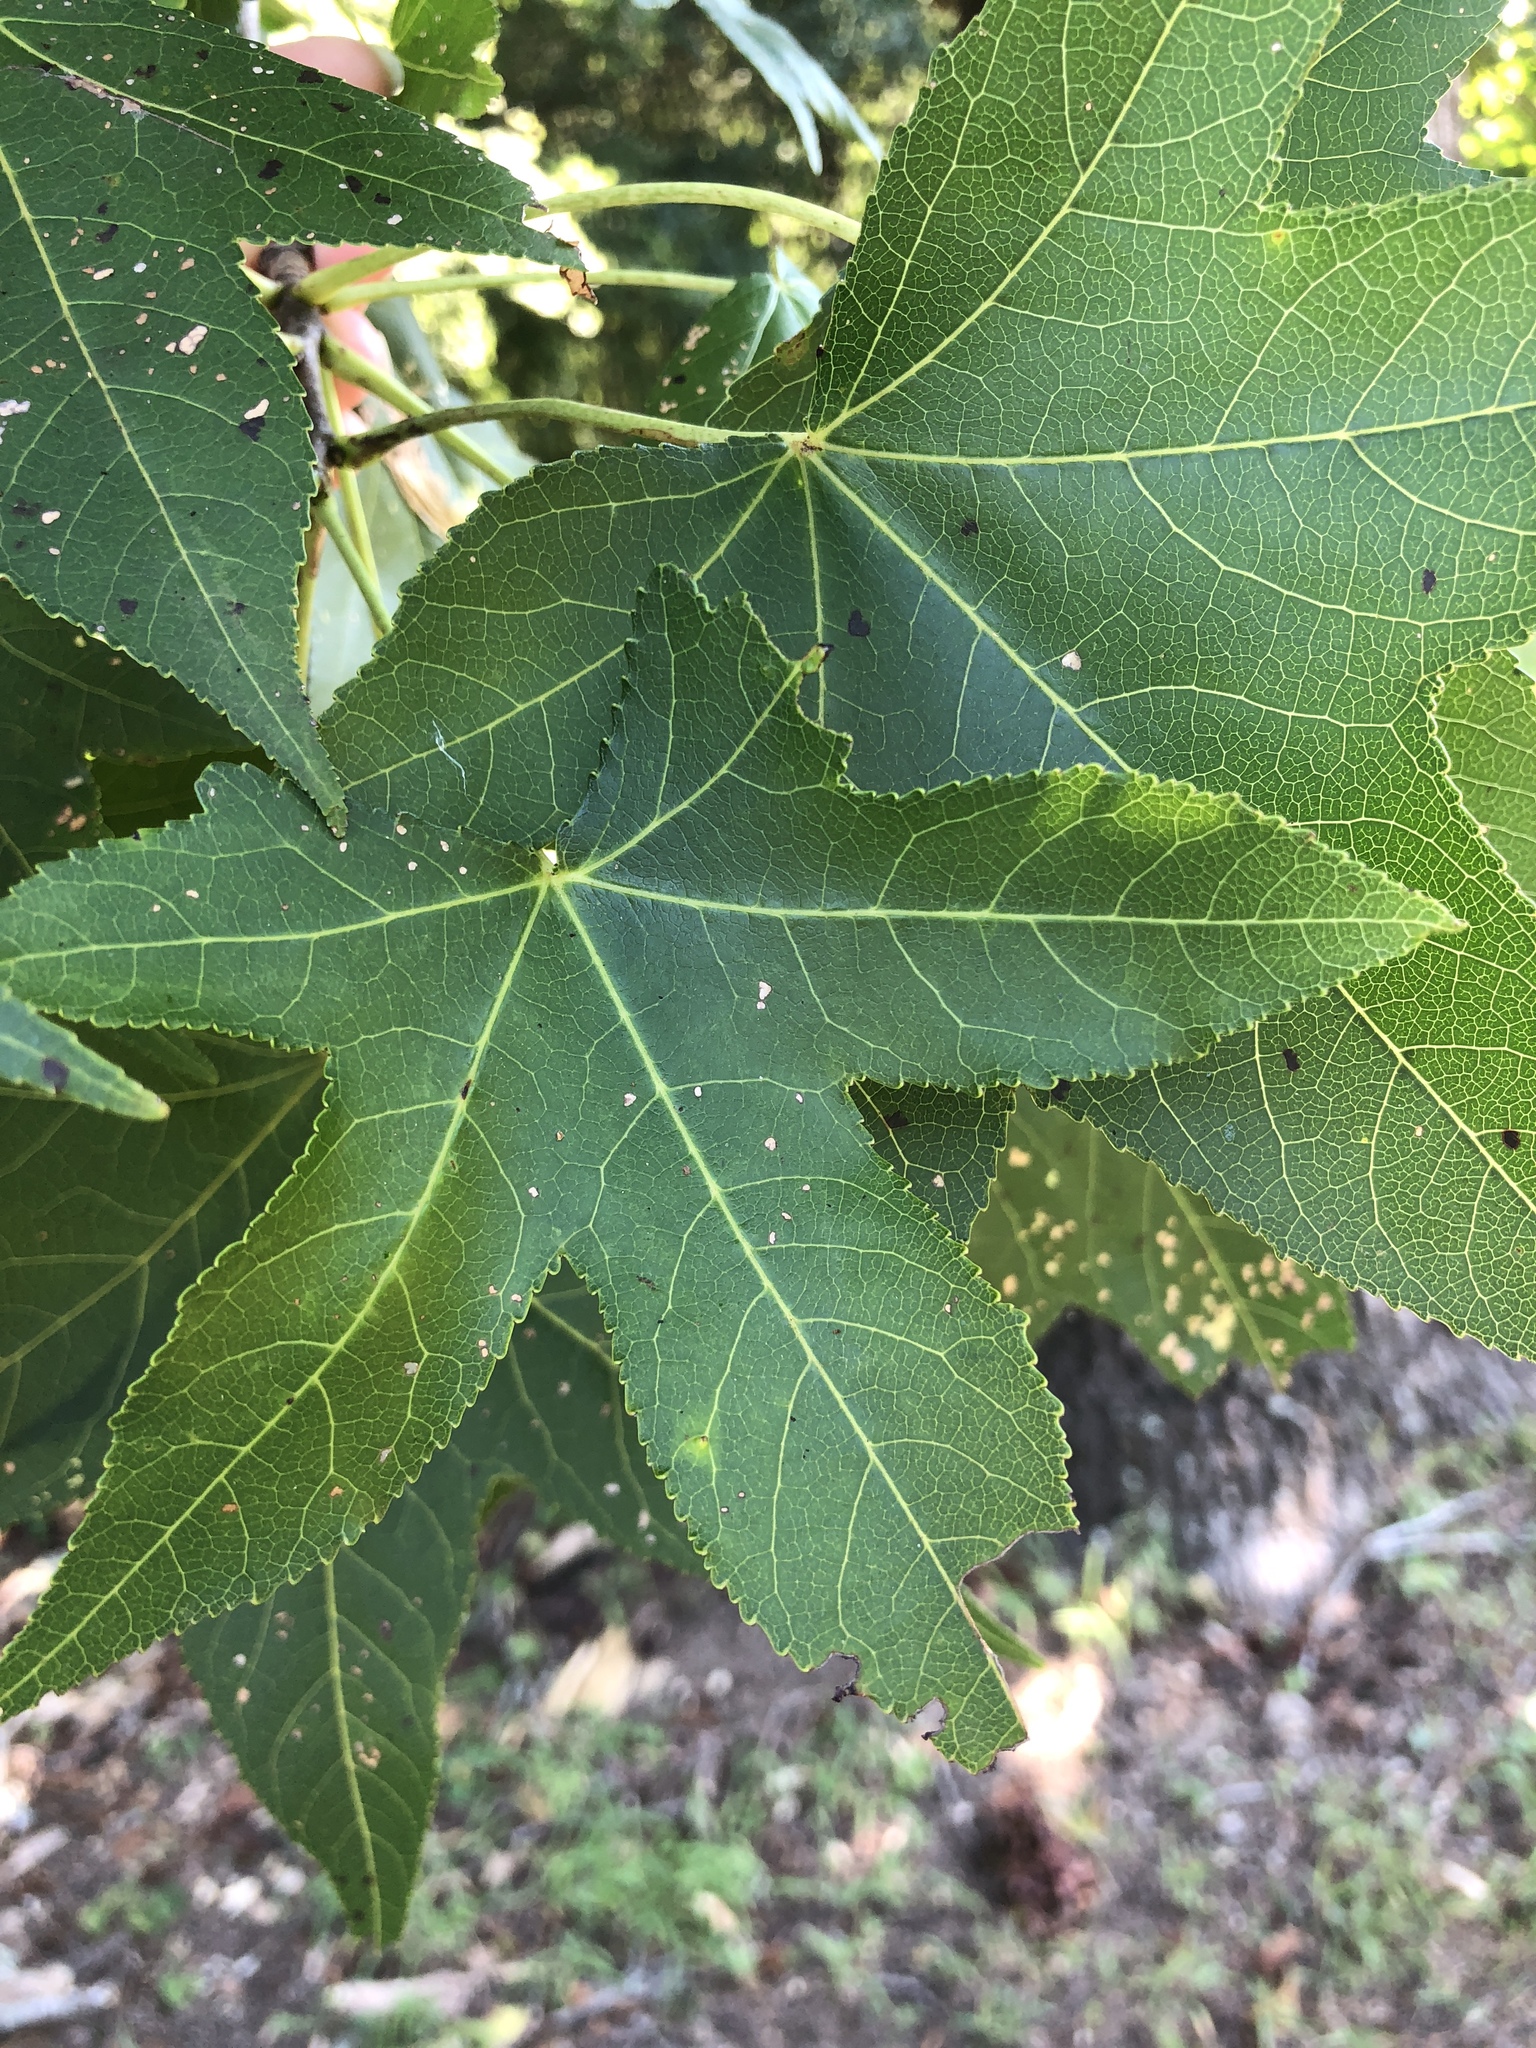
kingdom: Plantae
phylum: Tracheophyta
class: Magnoliopsida
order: Saxifragales
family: Altingiaceae
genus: Liquidambar
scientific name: Liquidambar styraciflua
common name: Sweet gum
